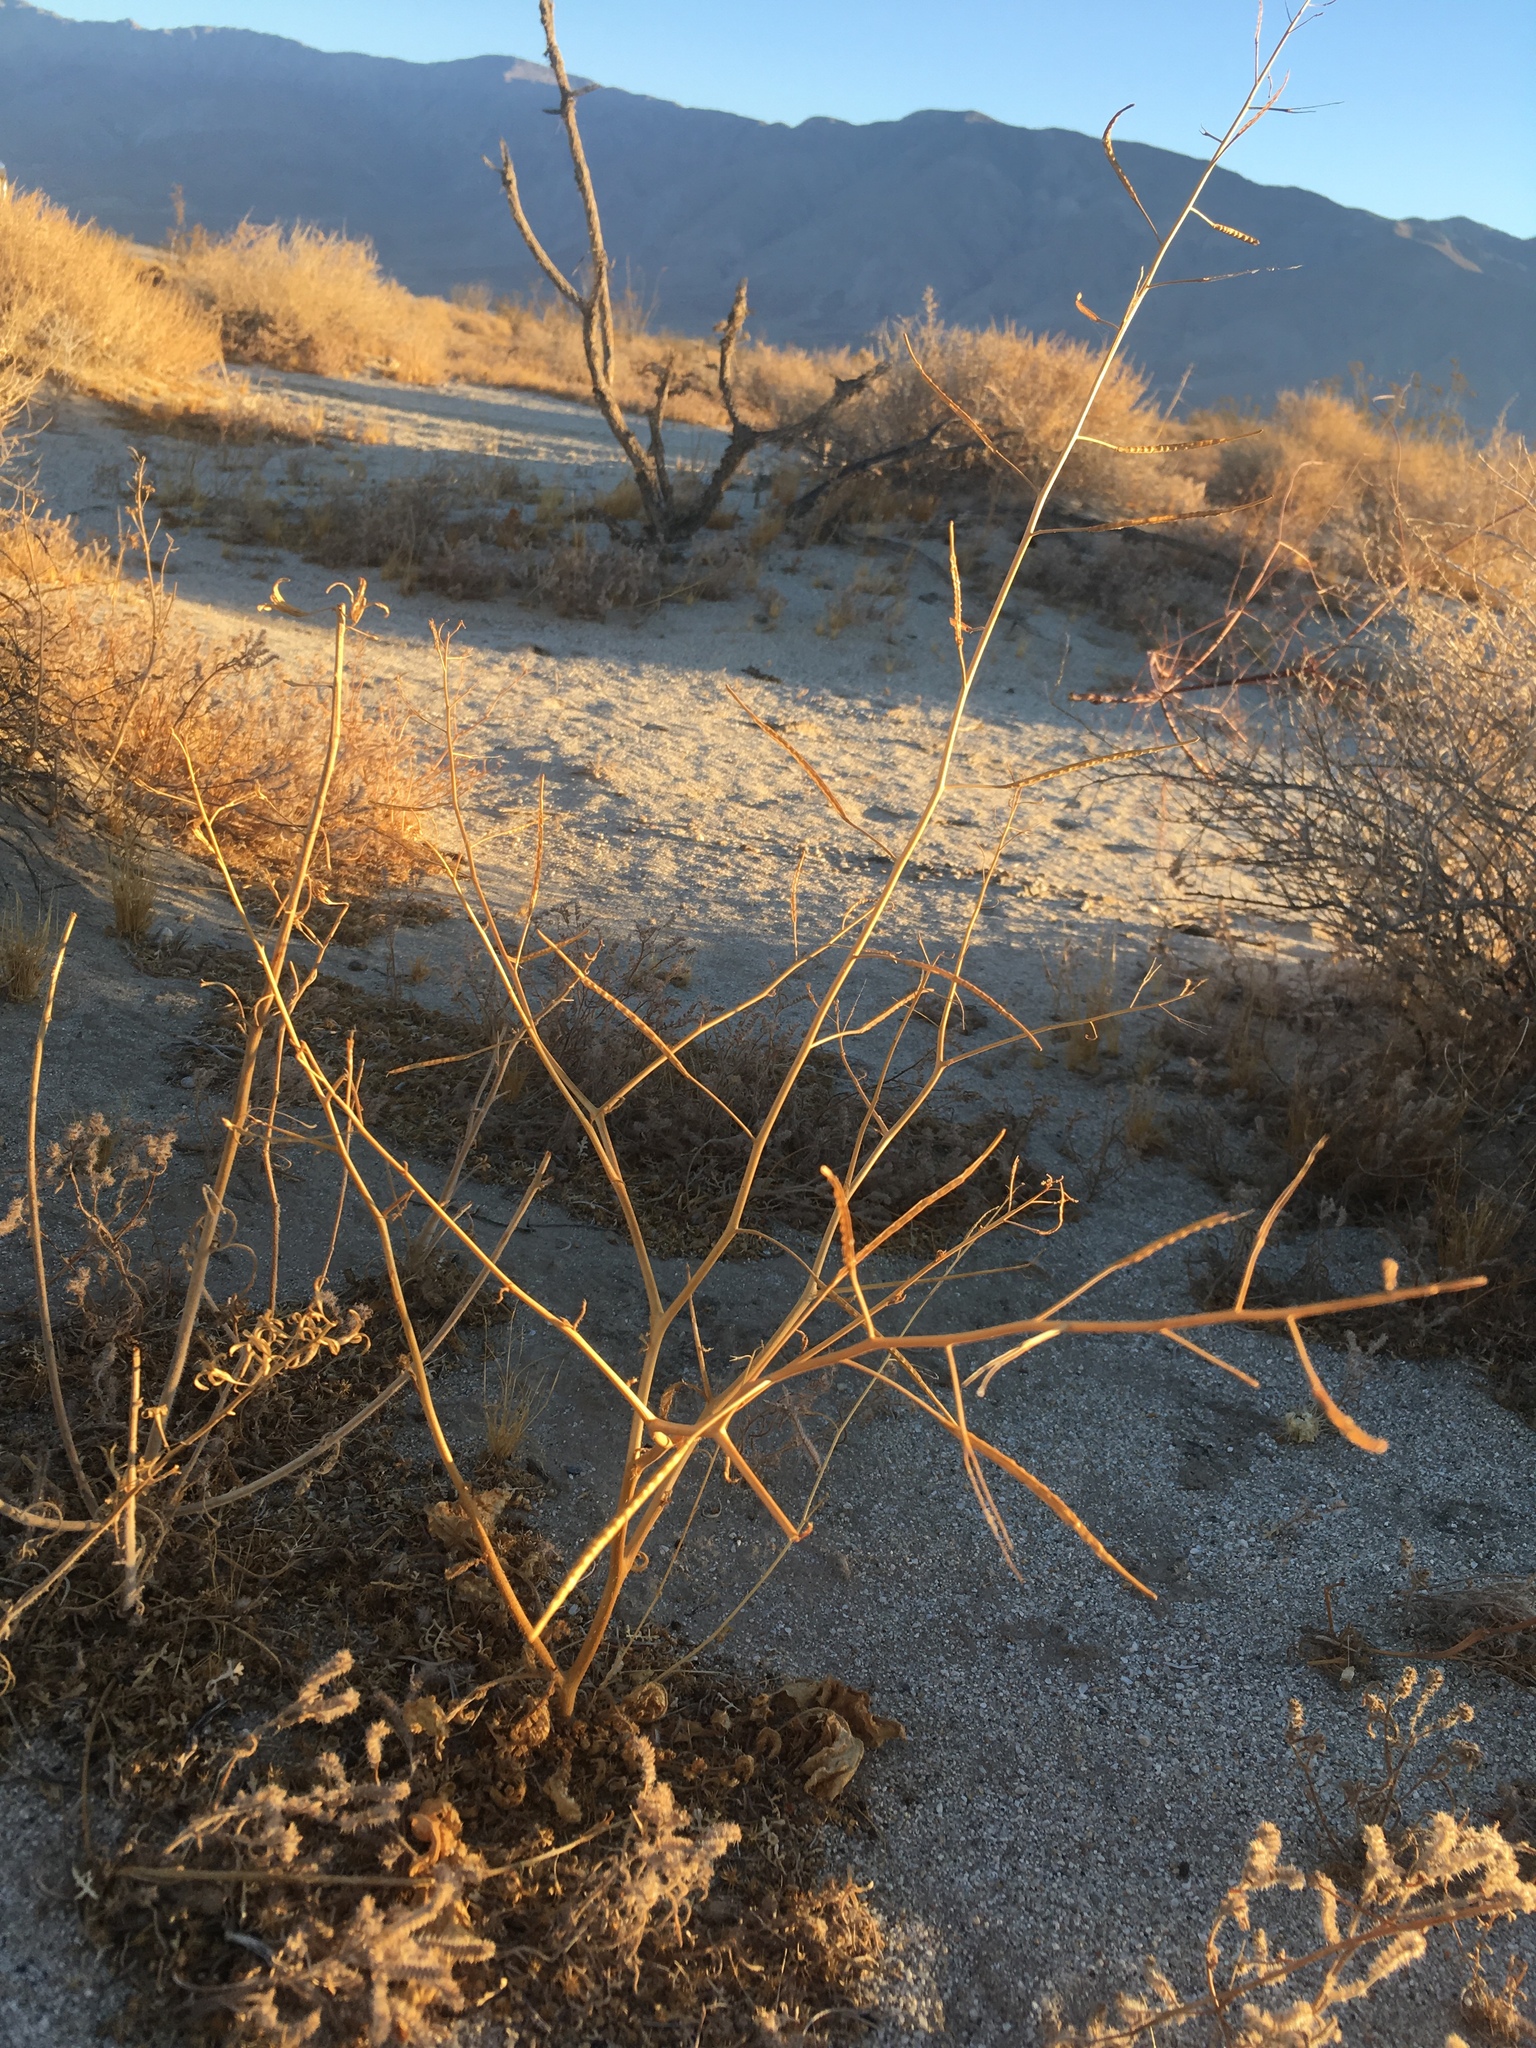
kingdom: Plantae
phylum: Tracheophyta
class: Magnoliopsida
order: Brassicales
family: Brassicaceae
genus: Brassica
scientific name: Brassica tournefortii
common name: Pale cabbage
